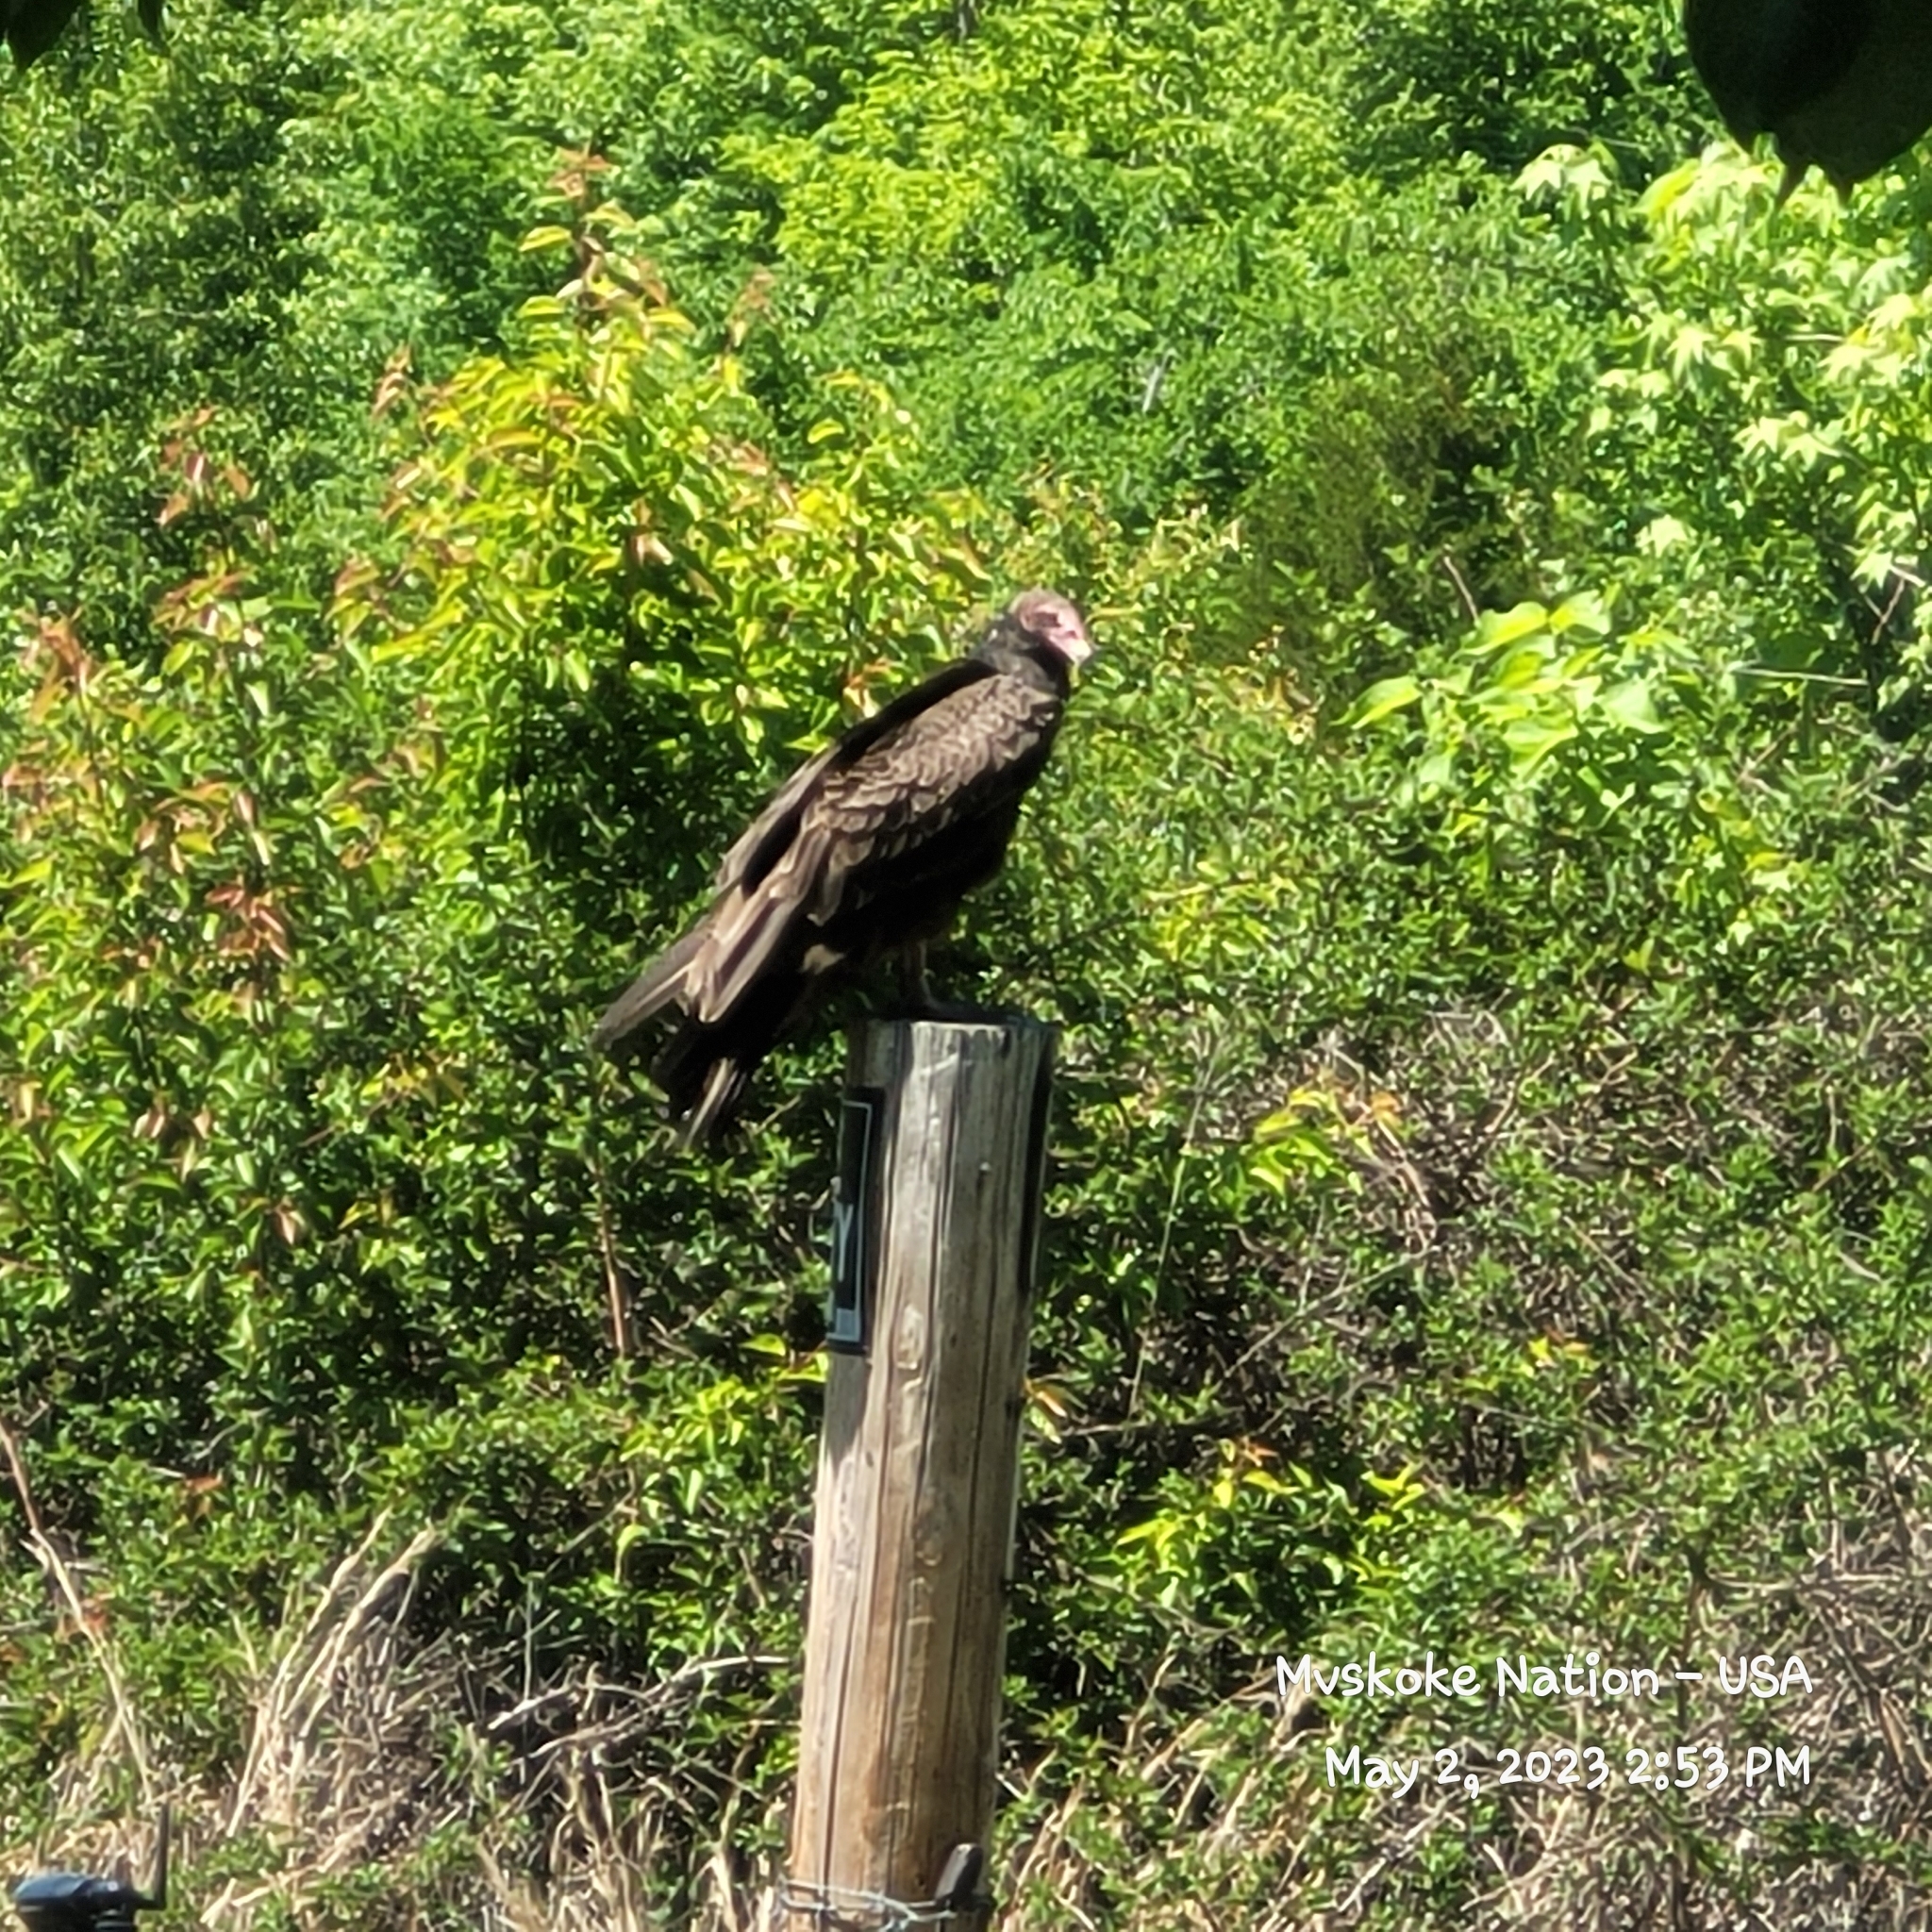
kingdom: Animalia
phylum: Chordata
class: Aves
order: Accipitriformes
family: Cathartidae
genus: Cathartes
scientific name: Cathartes aura
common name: Turkey vulture
